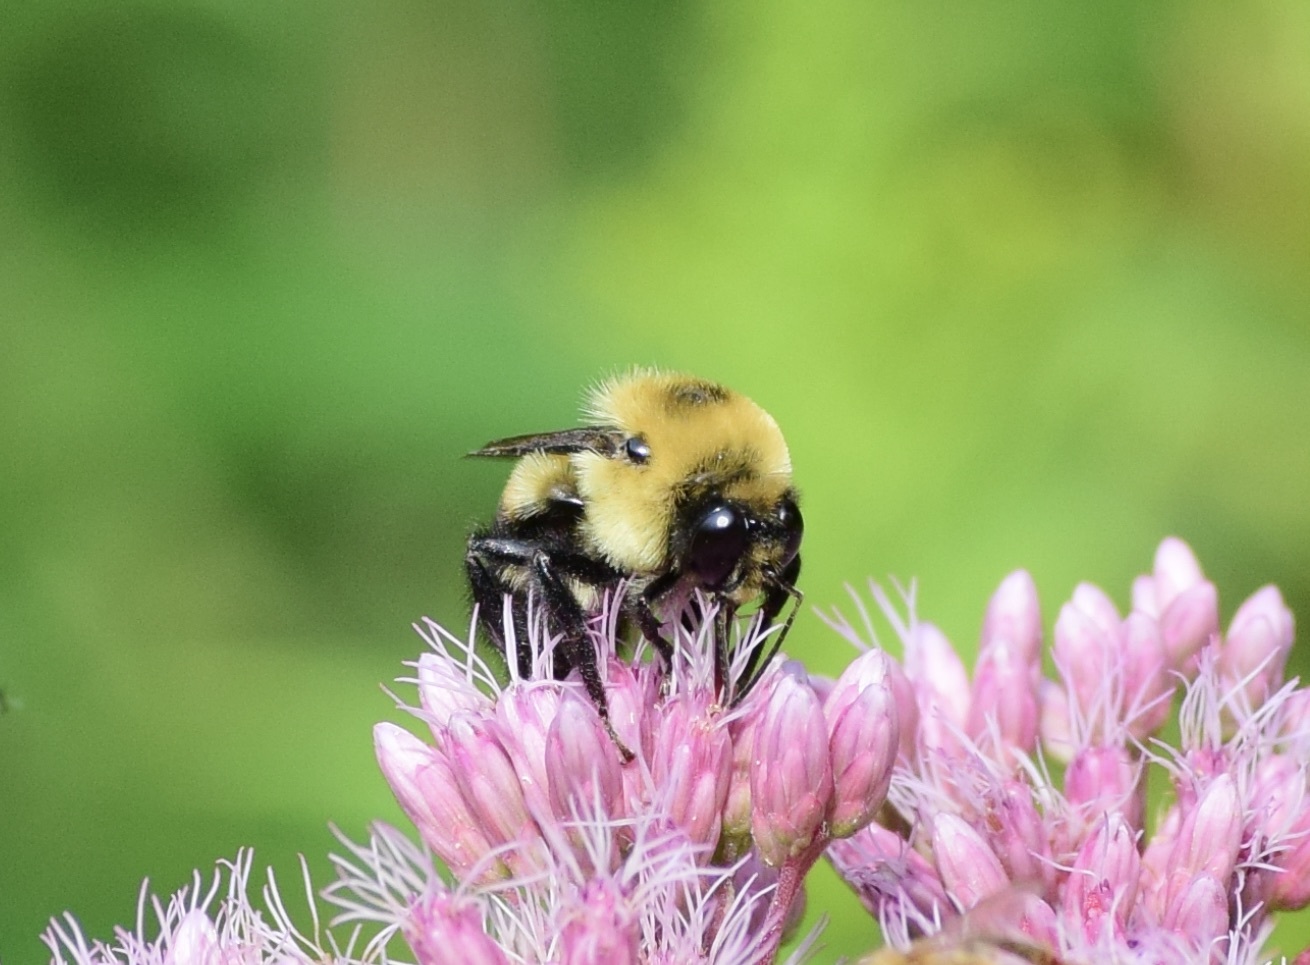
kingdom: Animalia
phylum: Arthropoda
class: Insecta
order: Hymenoptera
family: Apidae
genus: Bombus
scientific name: Bombus griseocollis
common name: Brown-belted bumble bee
